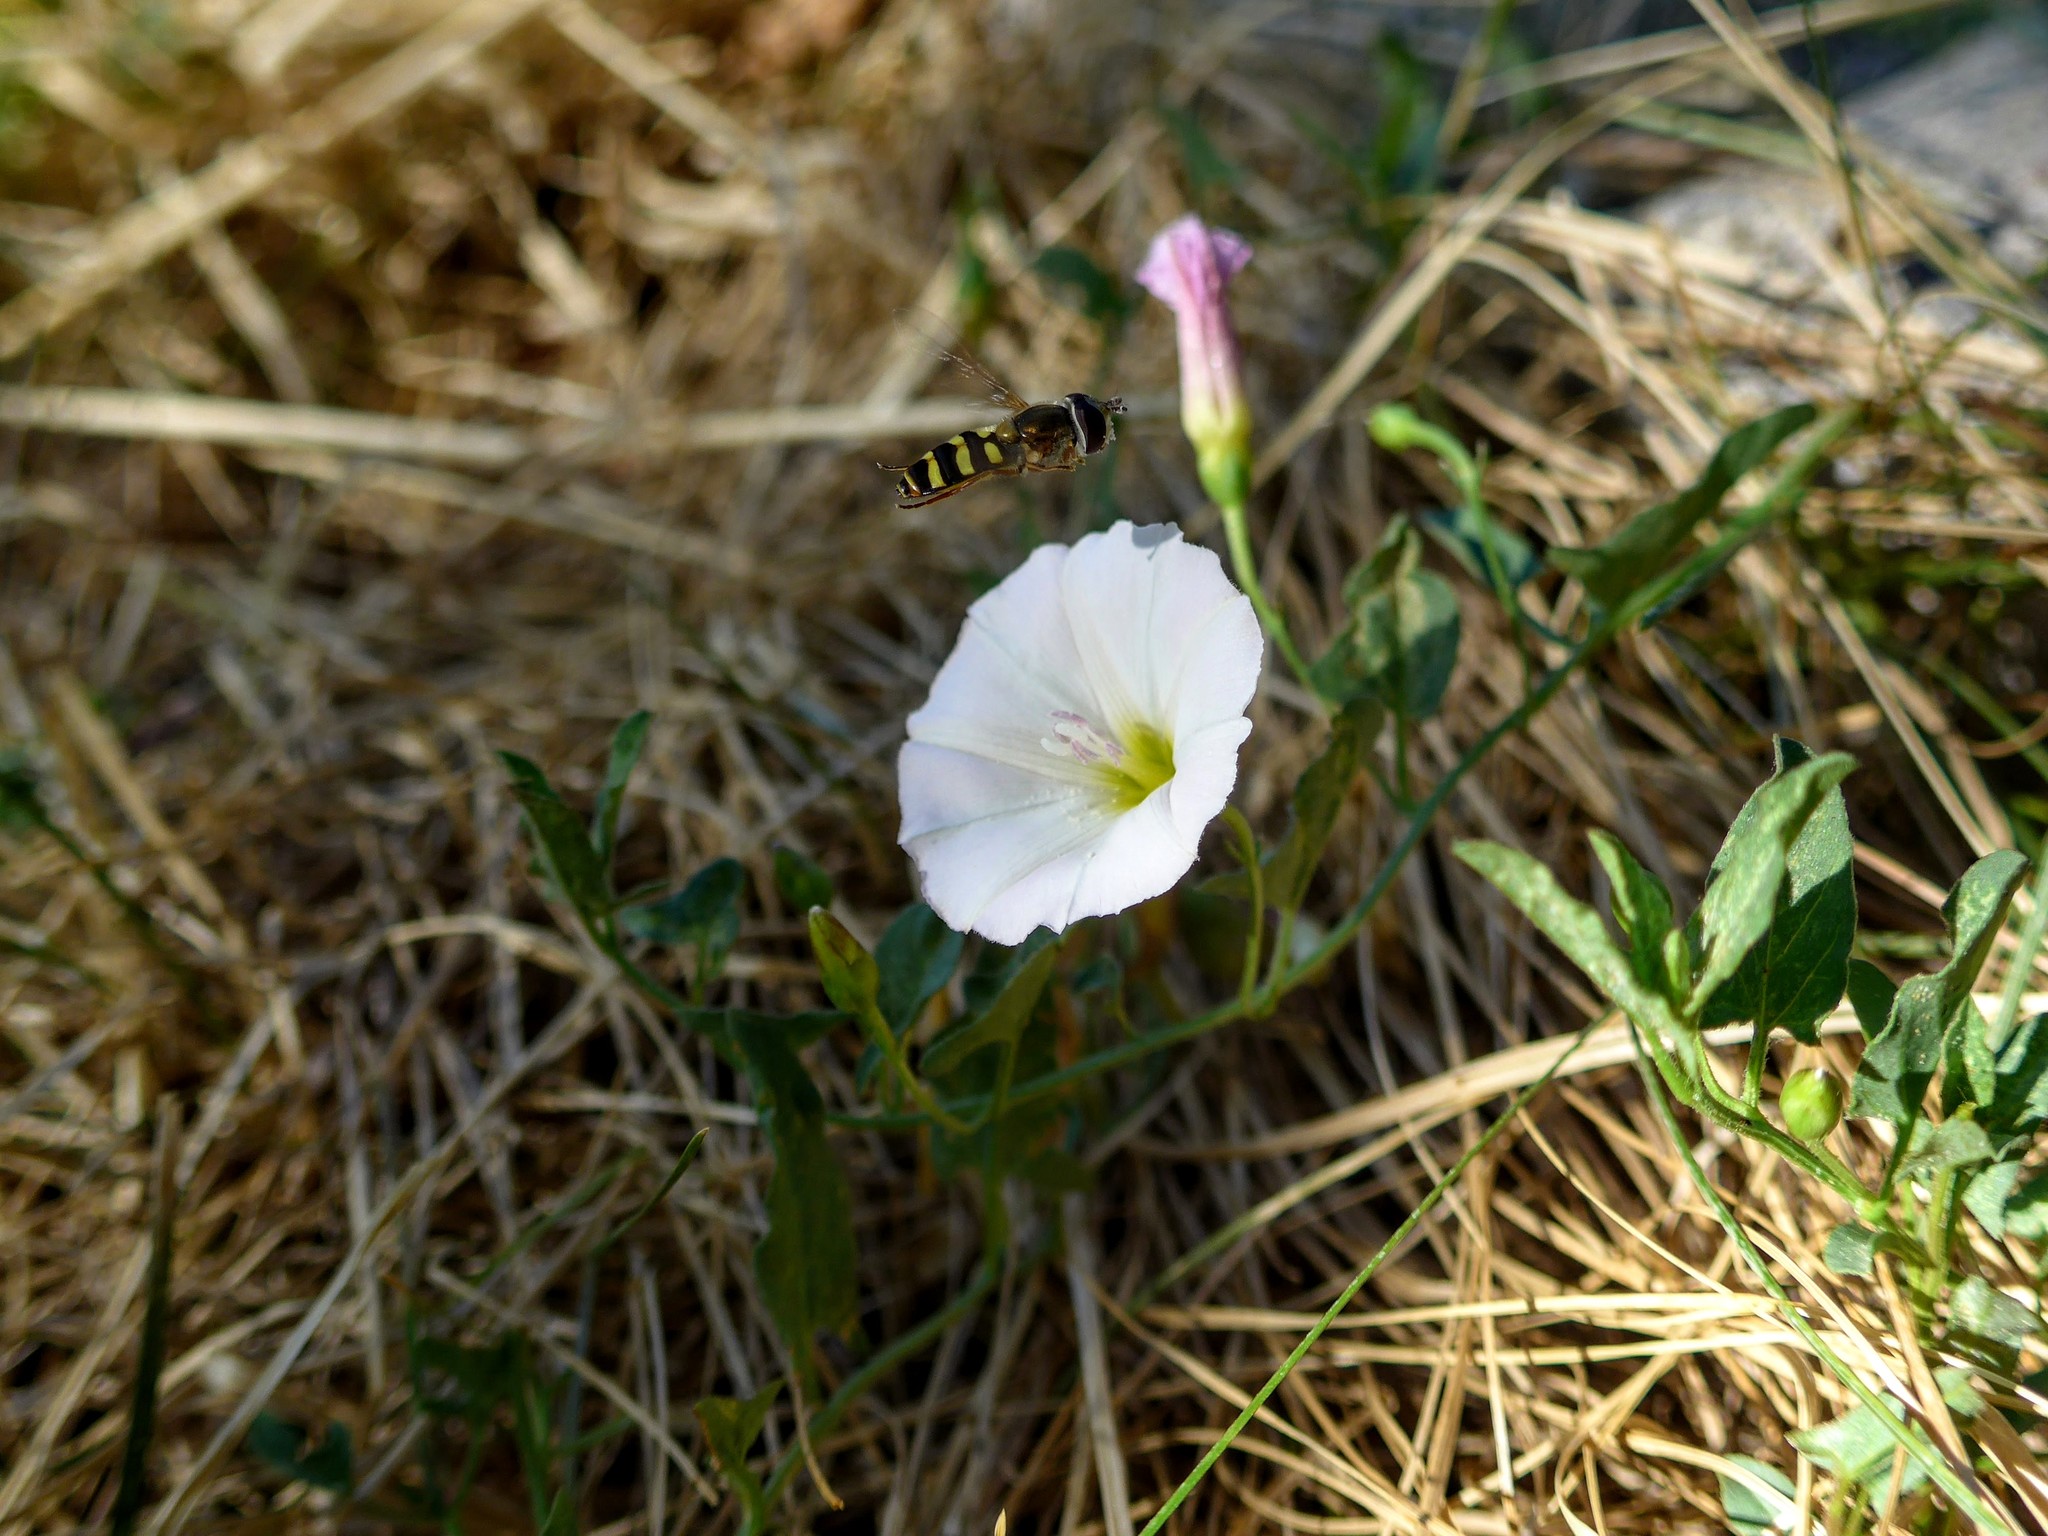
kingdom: Animalia
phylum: Arthropoda
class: Insecta
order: Diptera
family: Syrphidae
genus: Eupeodes
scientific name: Eupeodes fumipennis
